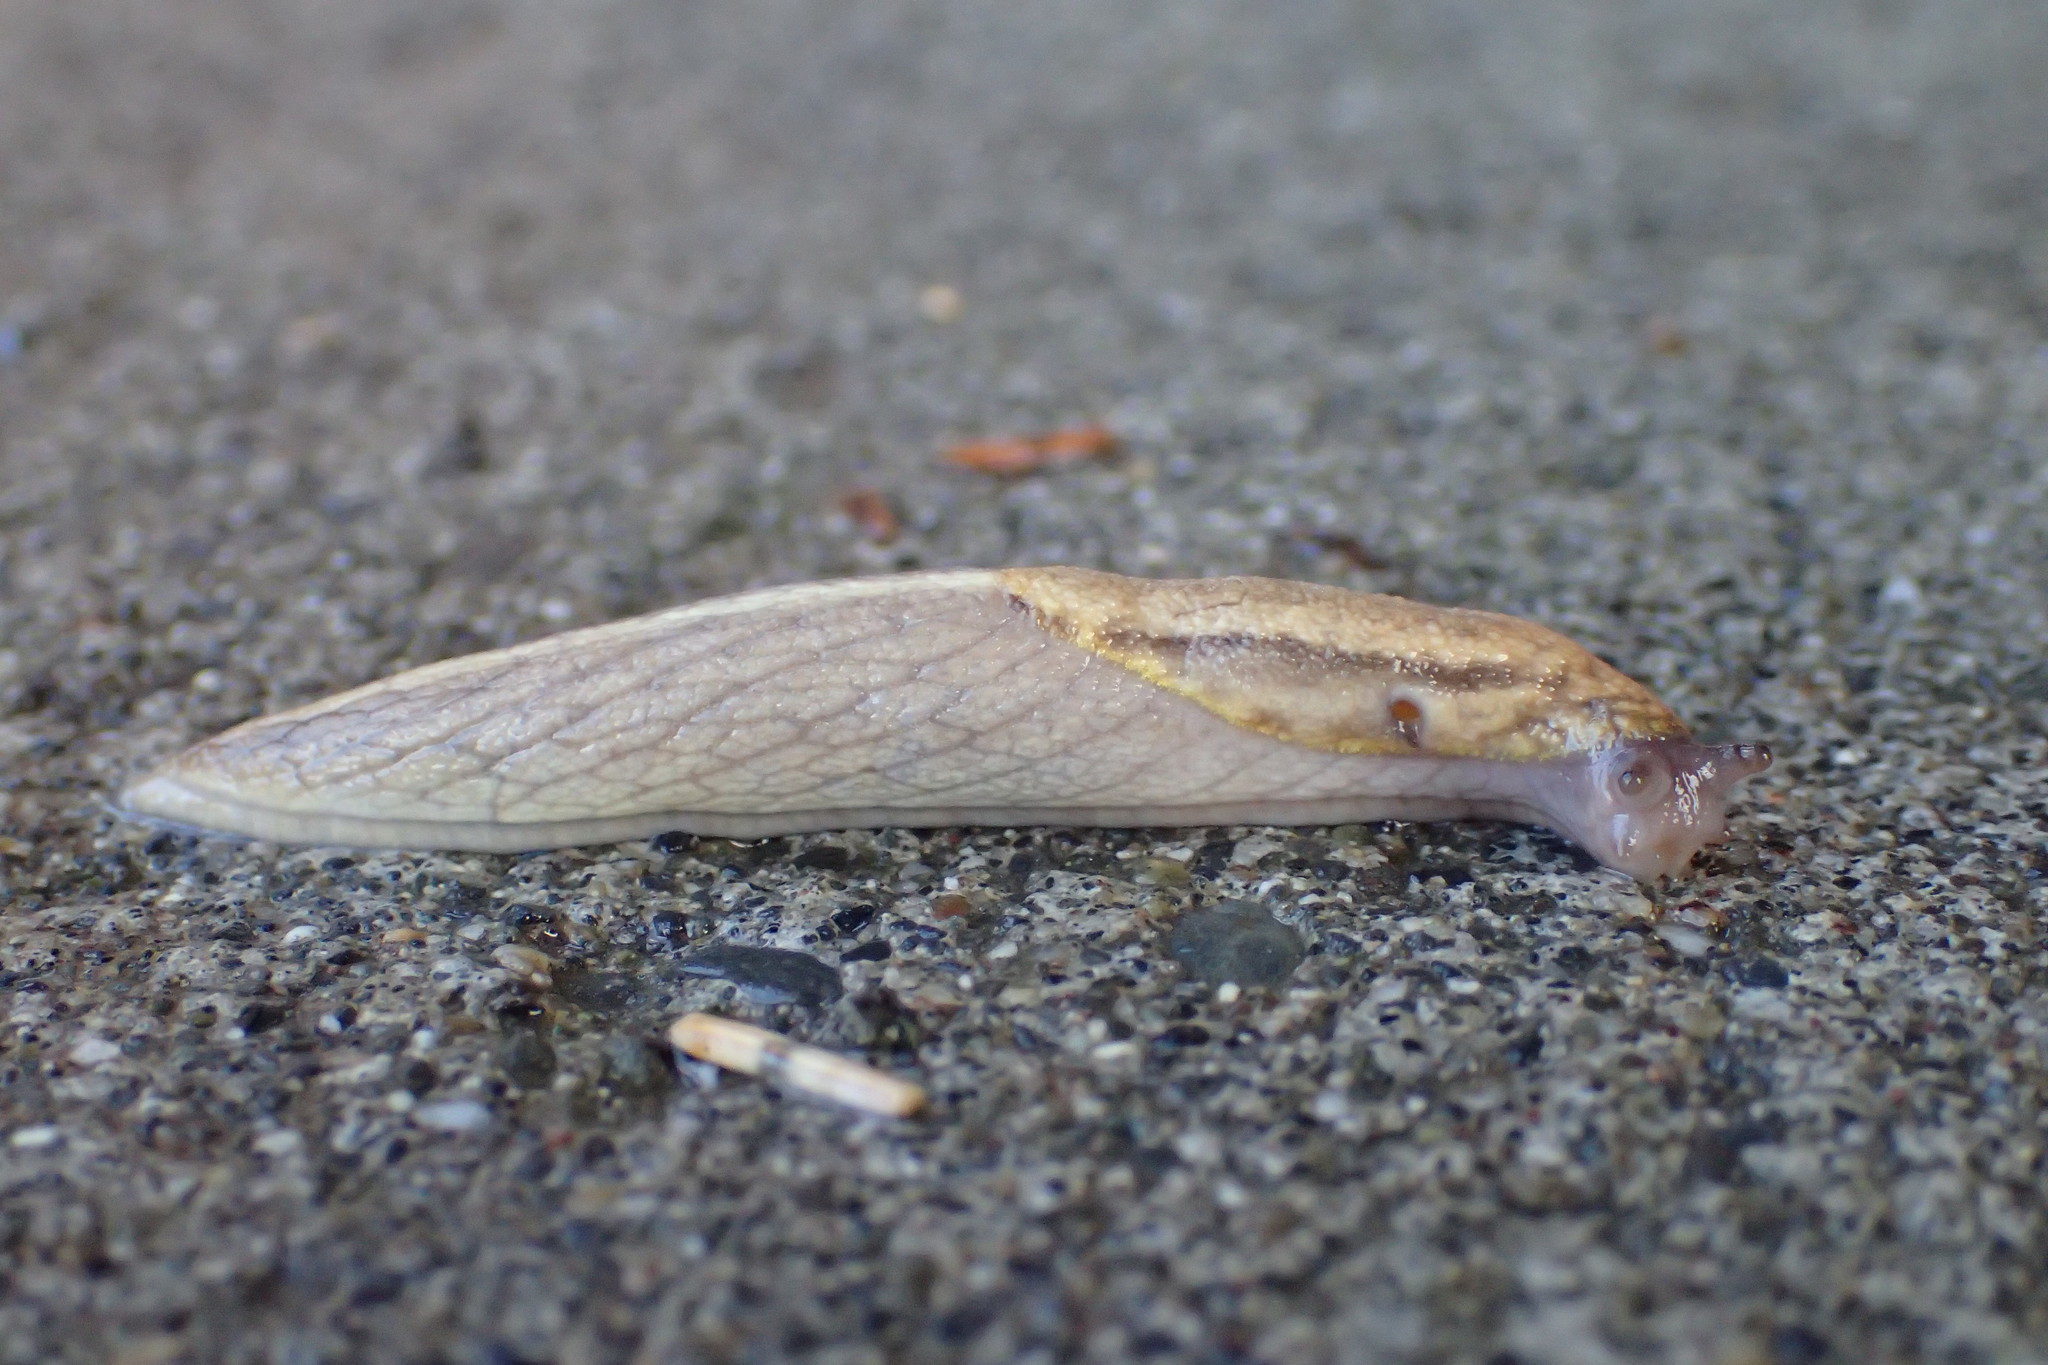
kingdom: Animalia
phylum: Mollusca
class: Gastropoda
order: Stylommatophora
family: Ariolimacidae
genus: Prophysaon
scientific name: Prophysaon andersonii
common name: Reticulate taildropper
